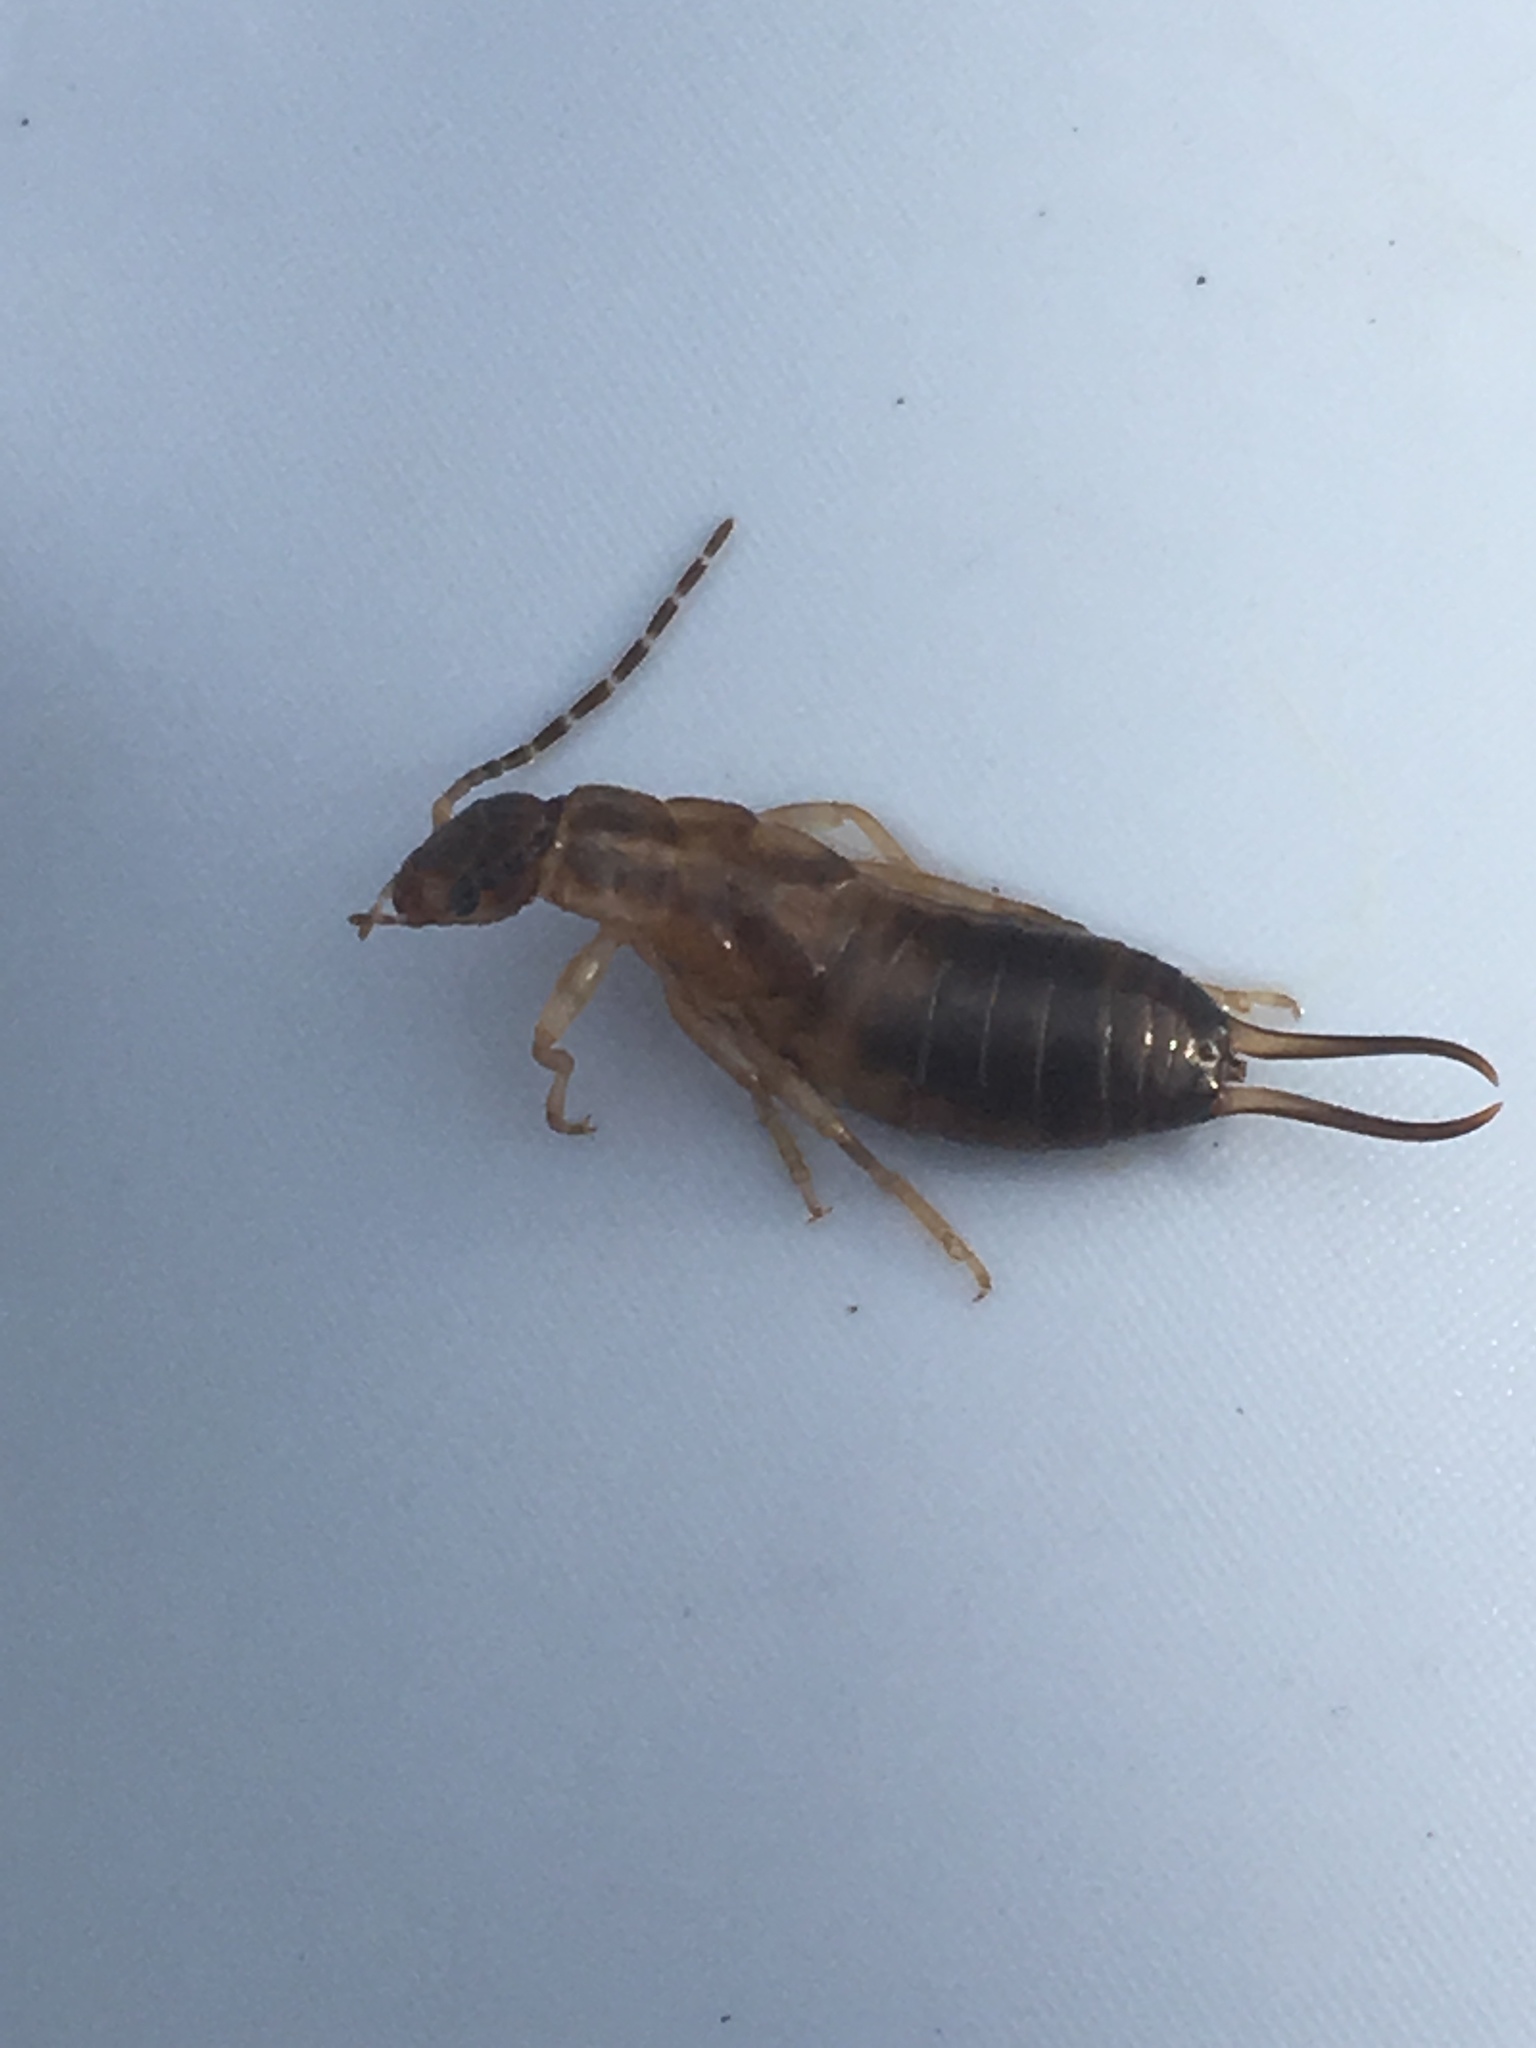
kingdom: Animalia
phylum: Arthropoda
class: Insecta
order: Dermaptera
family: Forficulidae
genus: Forficula
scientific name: Forficula
